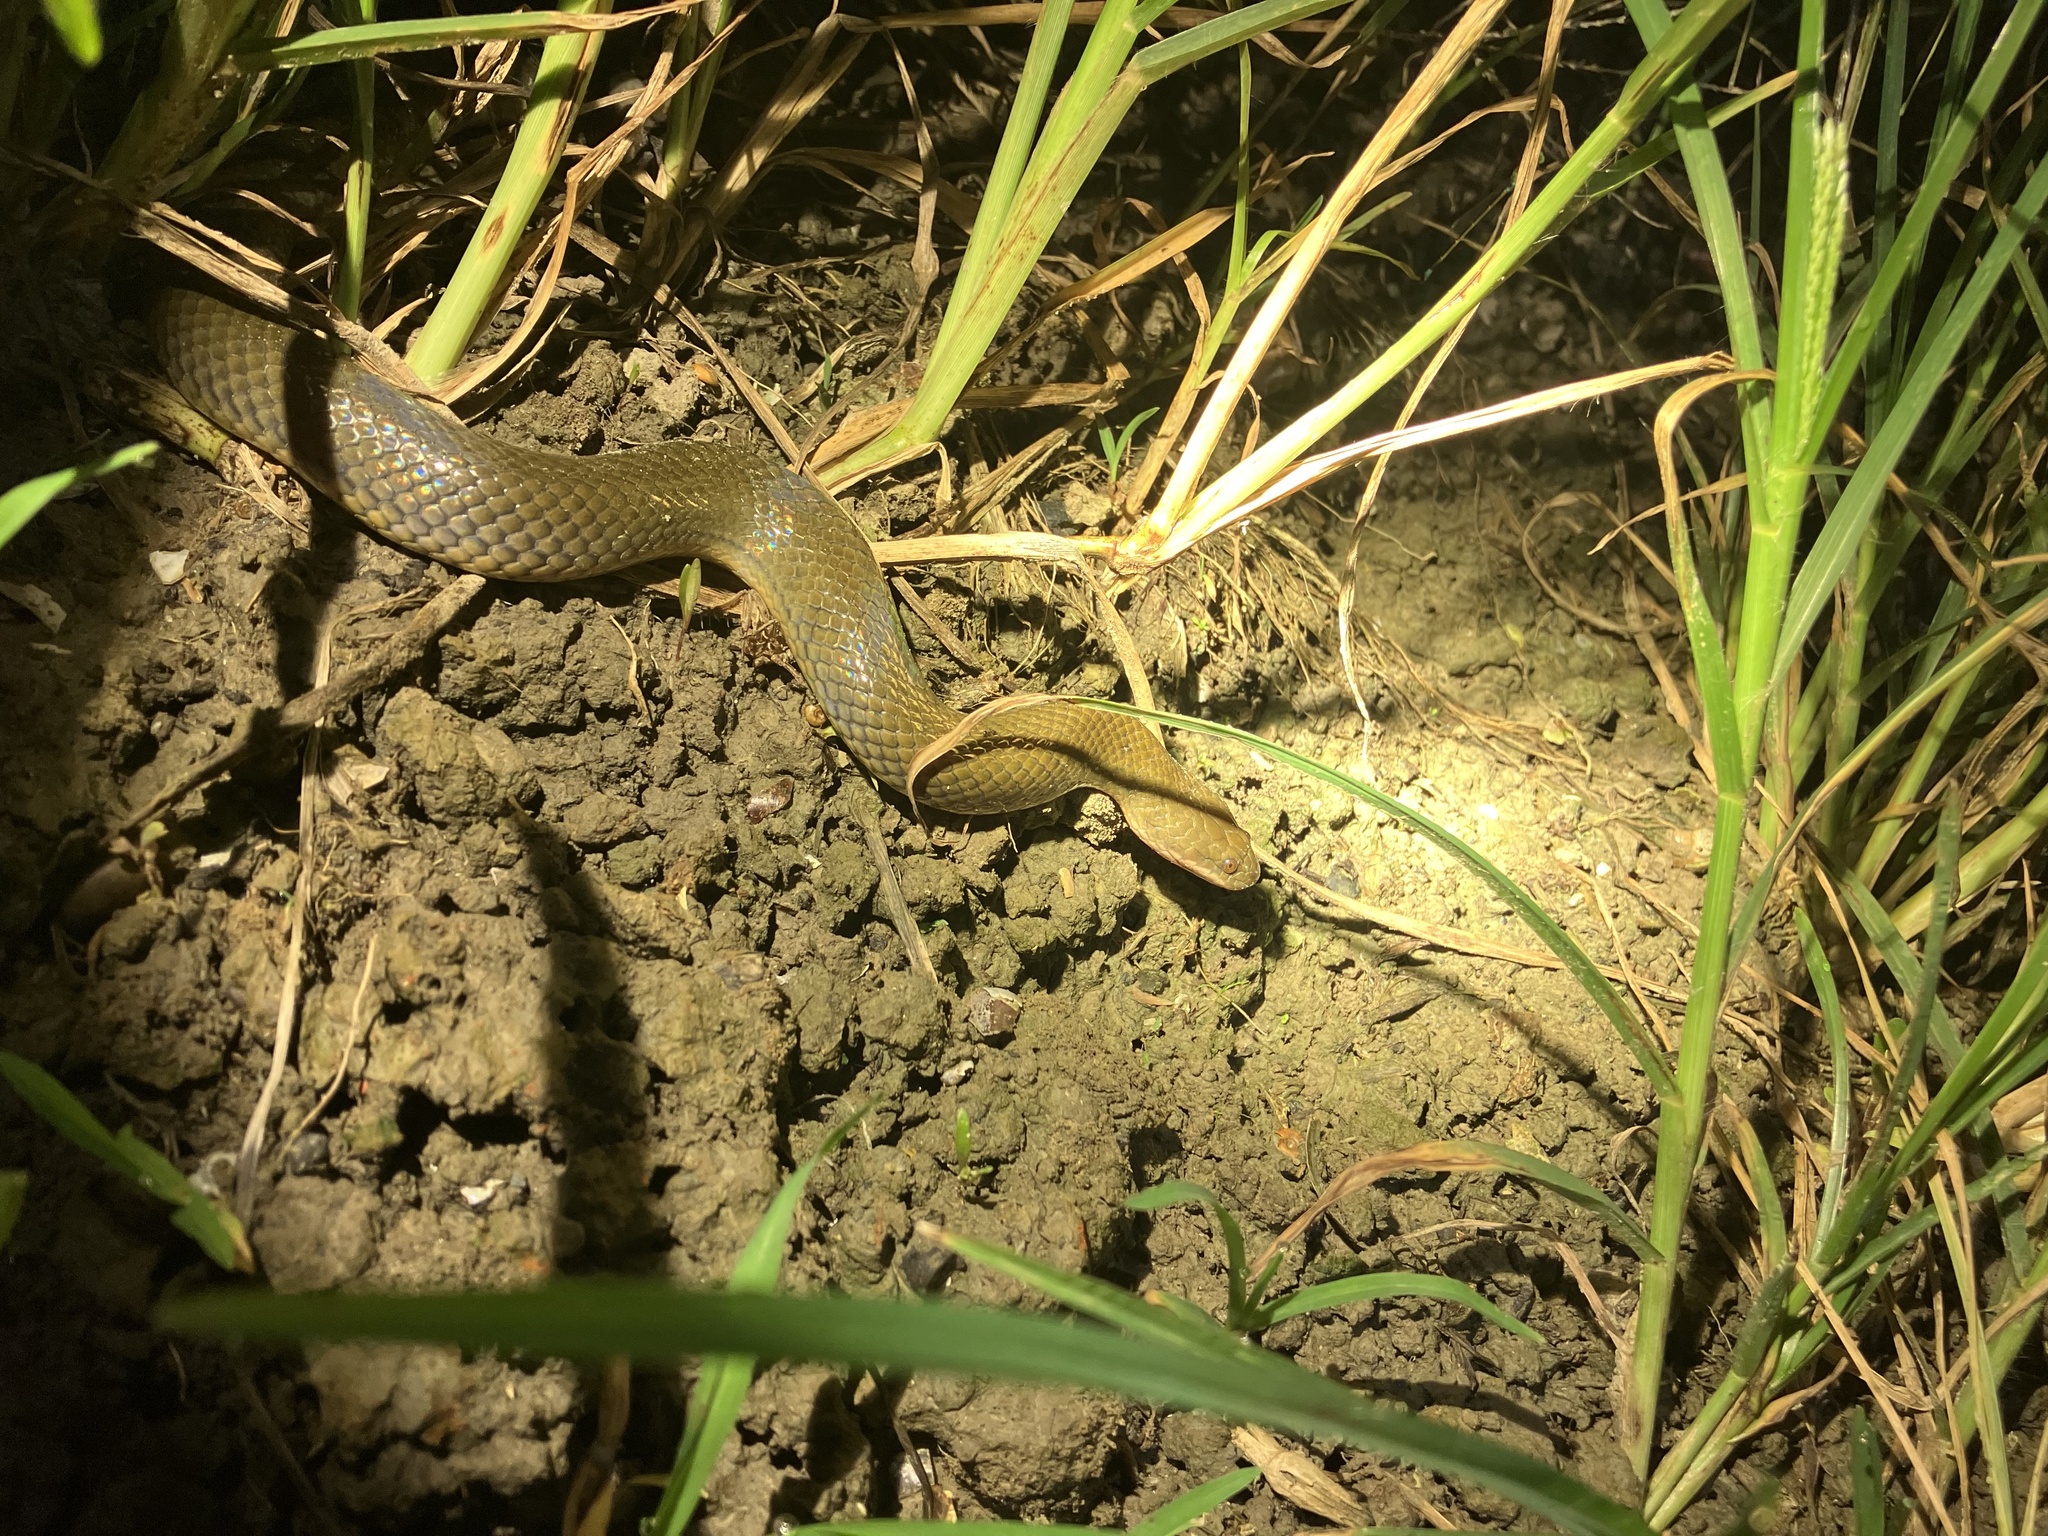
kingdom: Animalia
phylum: Chordata
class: Squamata
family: Homalopsidae
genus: Hypsiscopus
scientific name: Hypsiscopus
